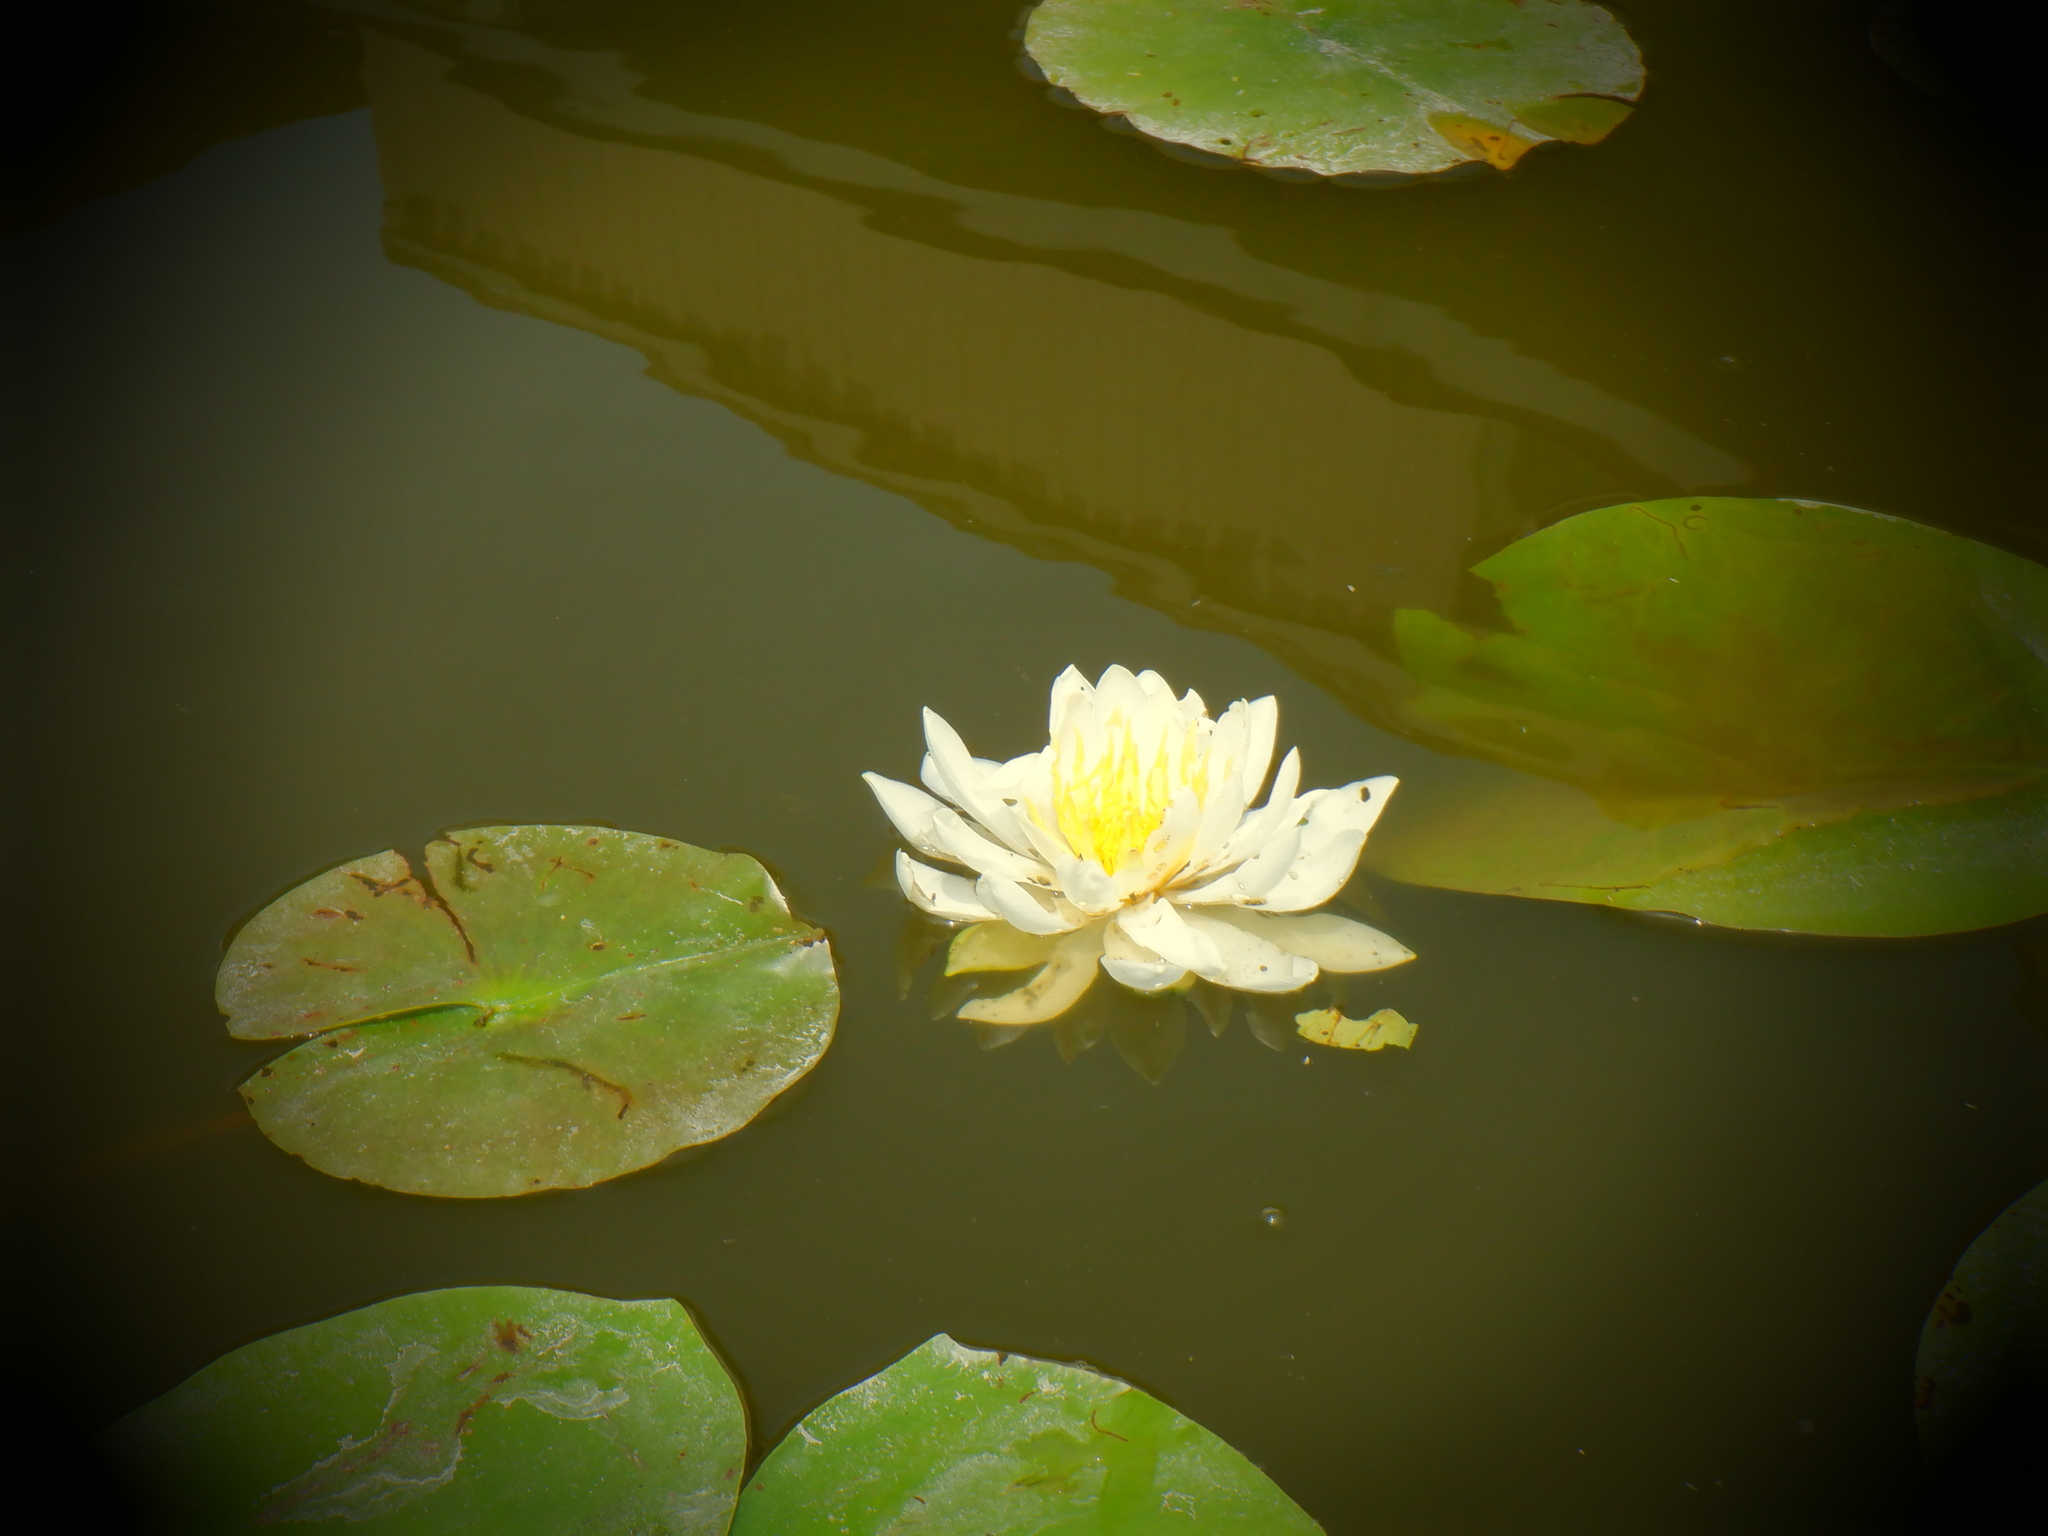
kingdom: Plantae
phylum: Tracheophyta
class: Magnoliopsida
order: Nymphaeales
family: Nymphaeaceae
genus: Nymphaea
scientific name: Nymphaea odorata
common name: Fragrant water-lily
